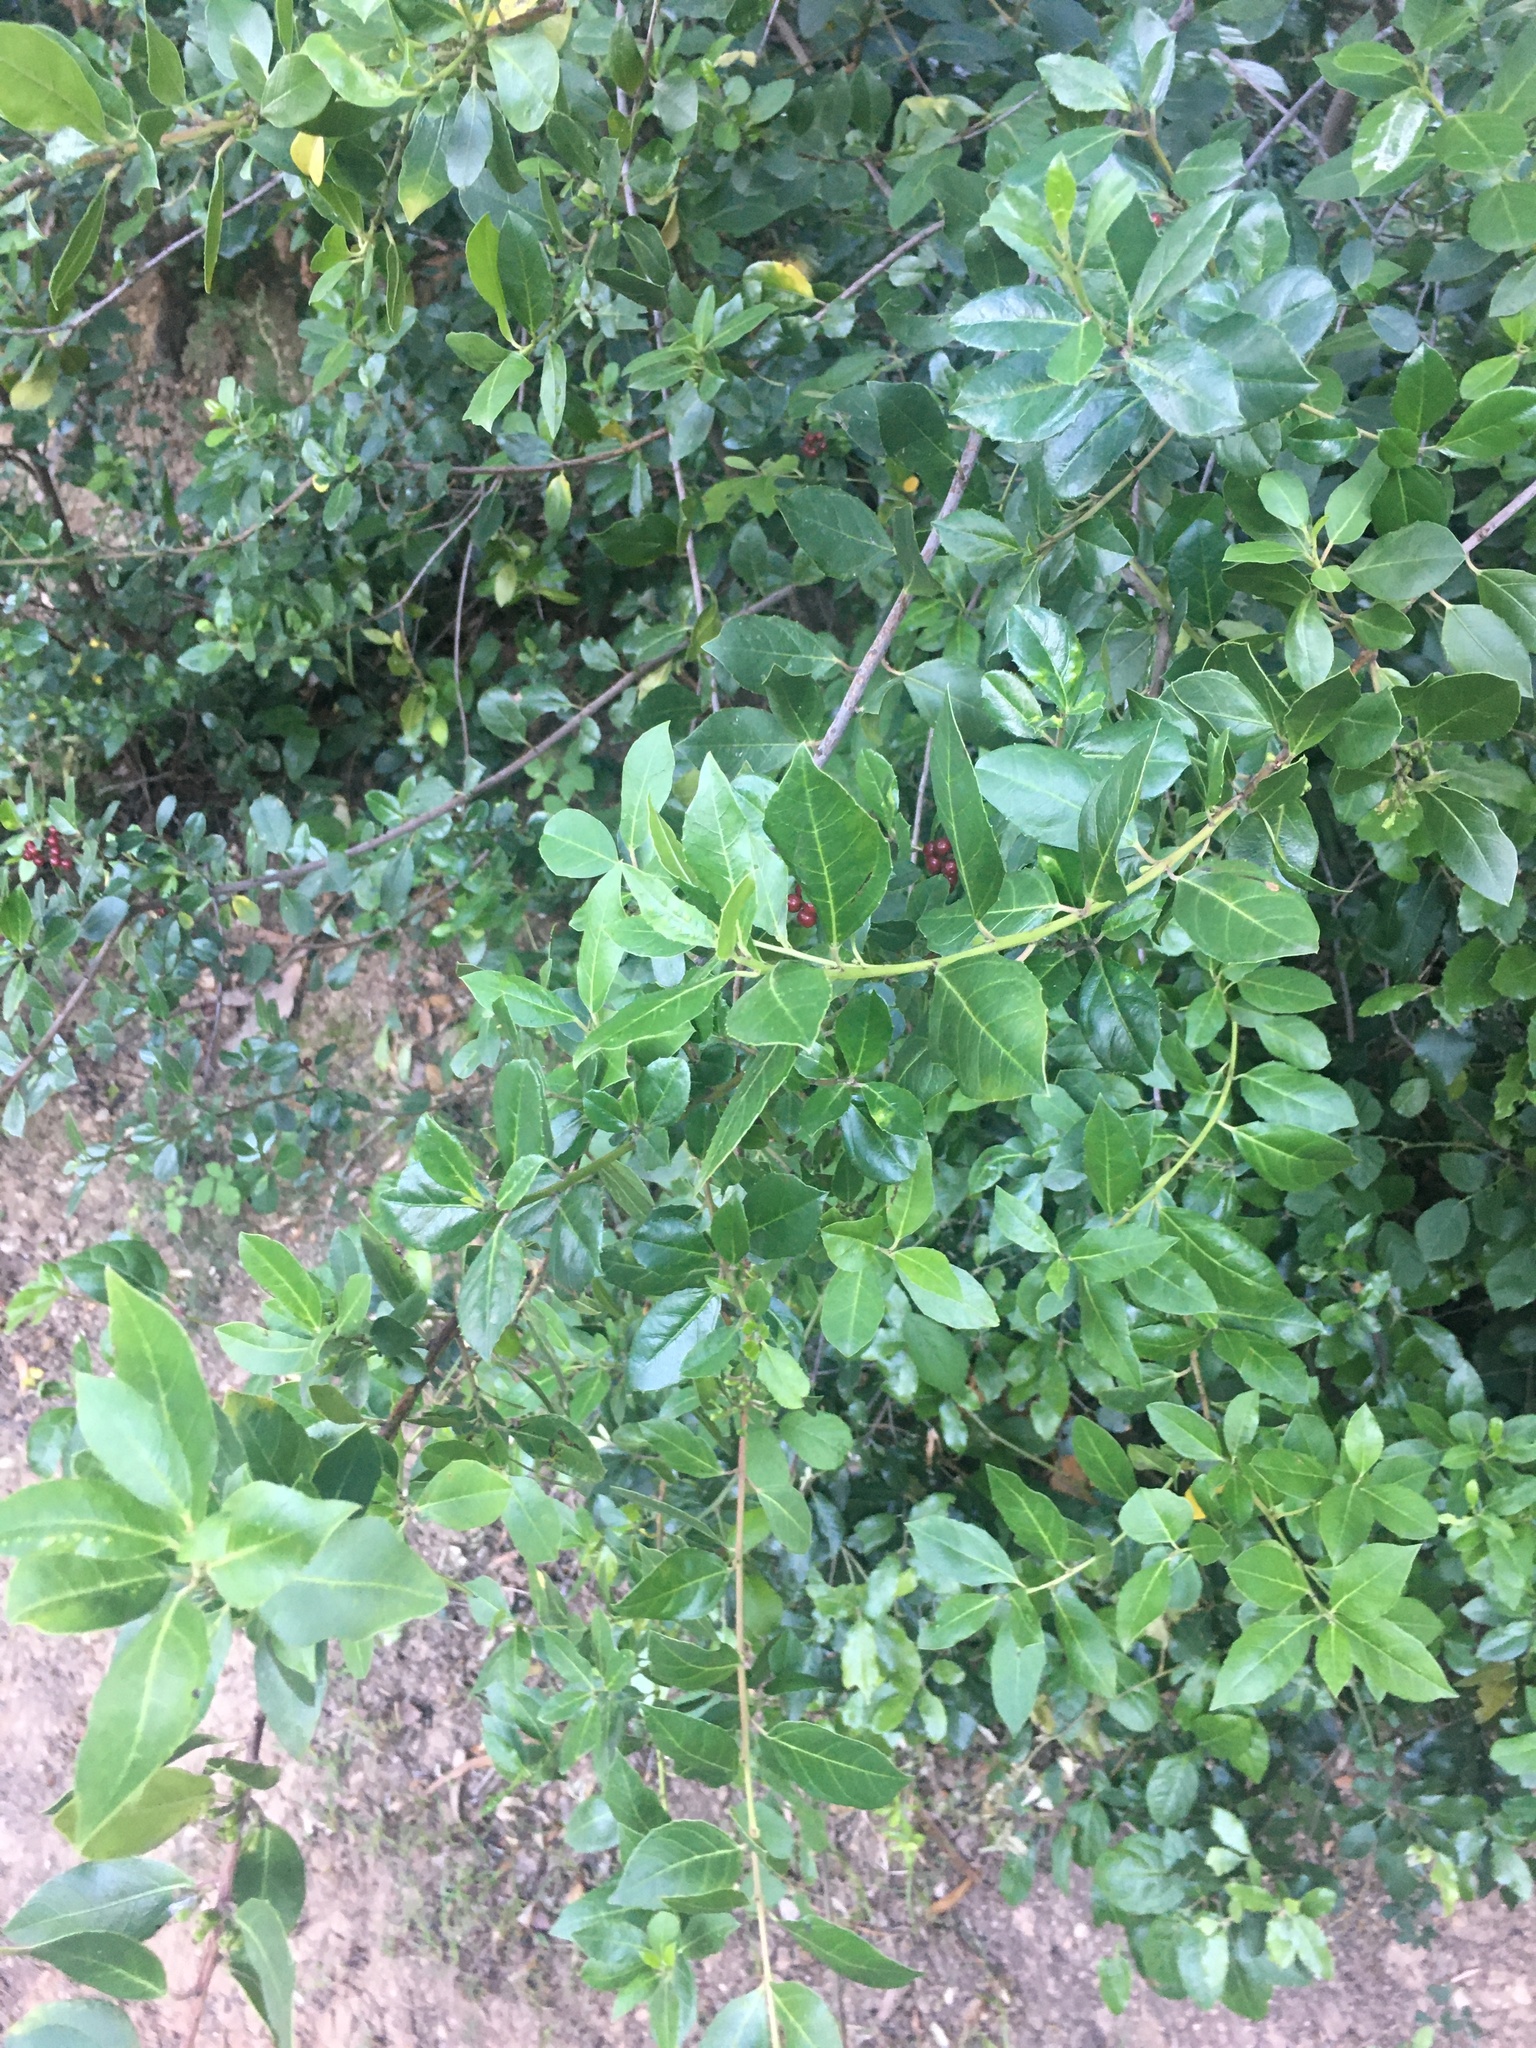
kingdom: Plantae
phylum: Tracheophyta
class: Magnoliopsida
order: Rosales
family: Rhamnaceae
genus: Rhamnus
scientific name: Rhamnus alaternus
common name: Mediterranean buckthorn
